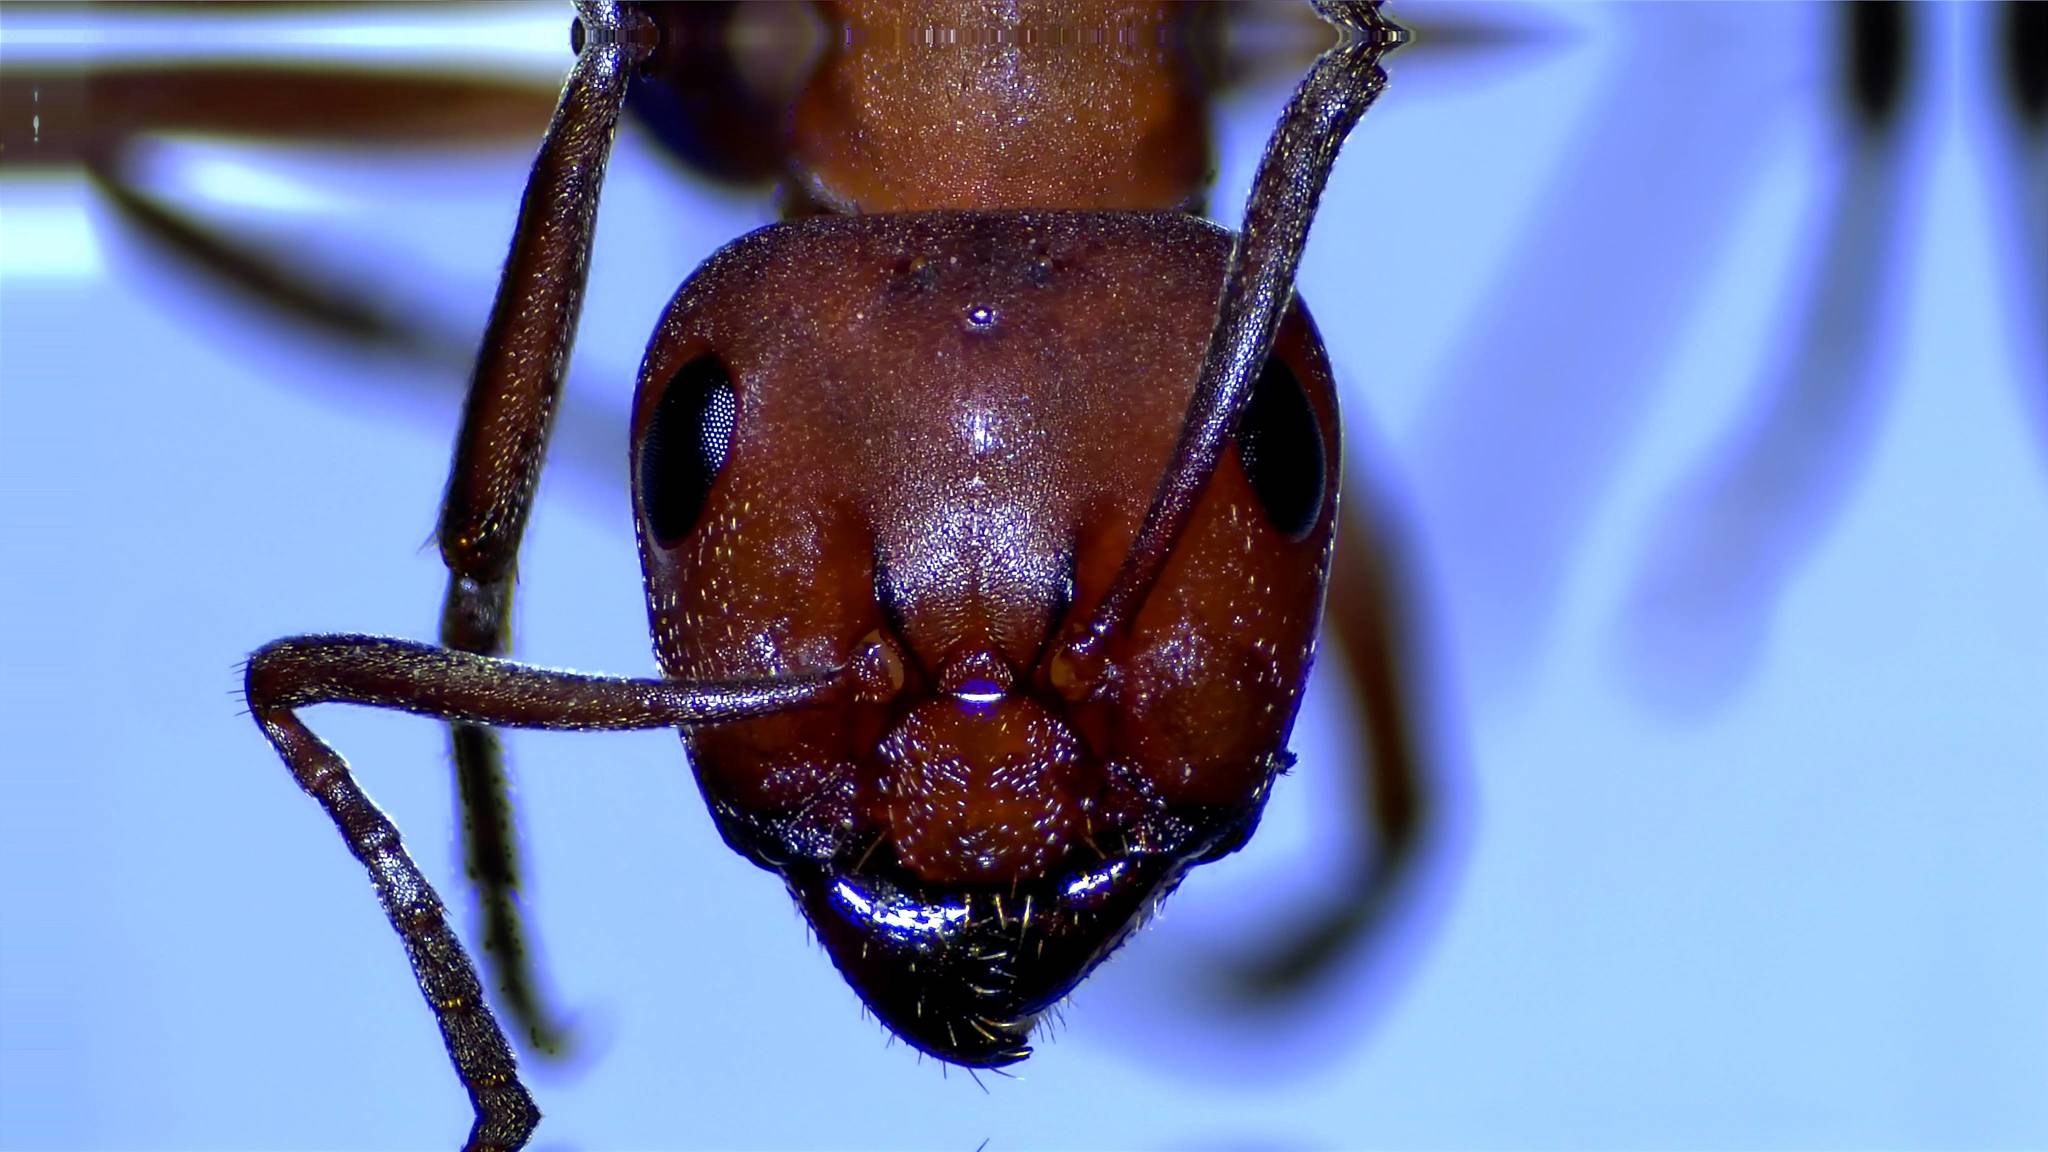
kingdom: Animalia
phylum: Arthropoda
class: Insecta
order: Hymenoptera
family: Formicidae
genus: Formica
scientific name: Formica rubicunda
